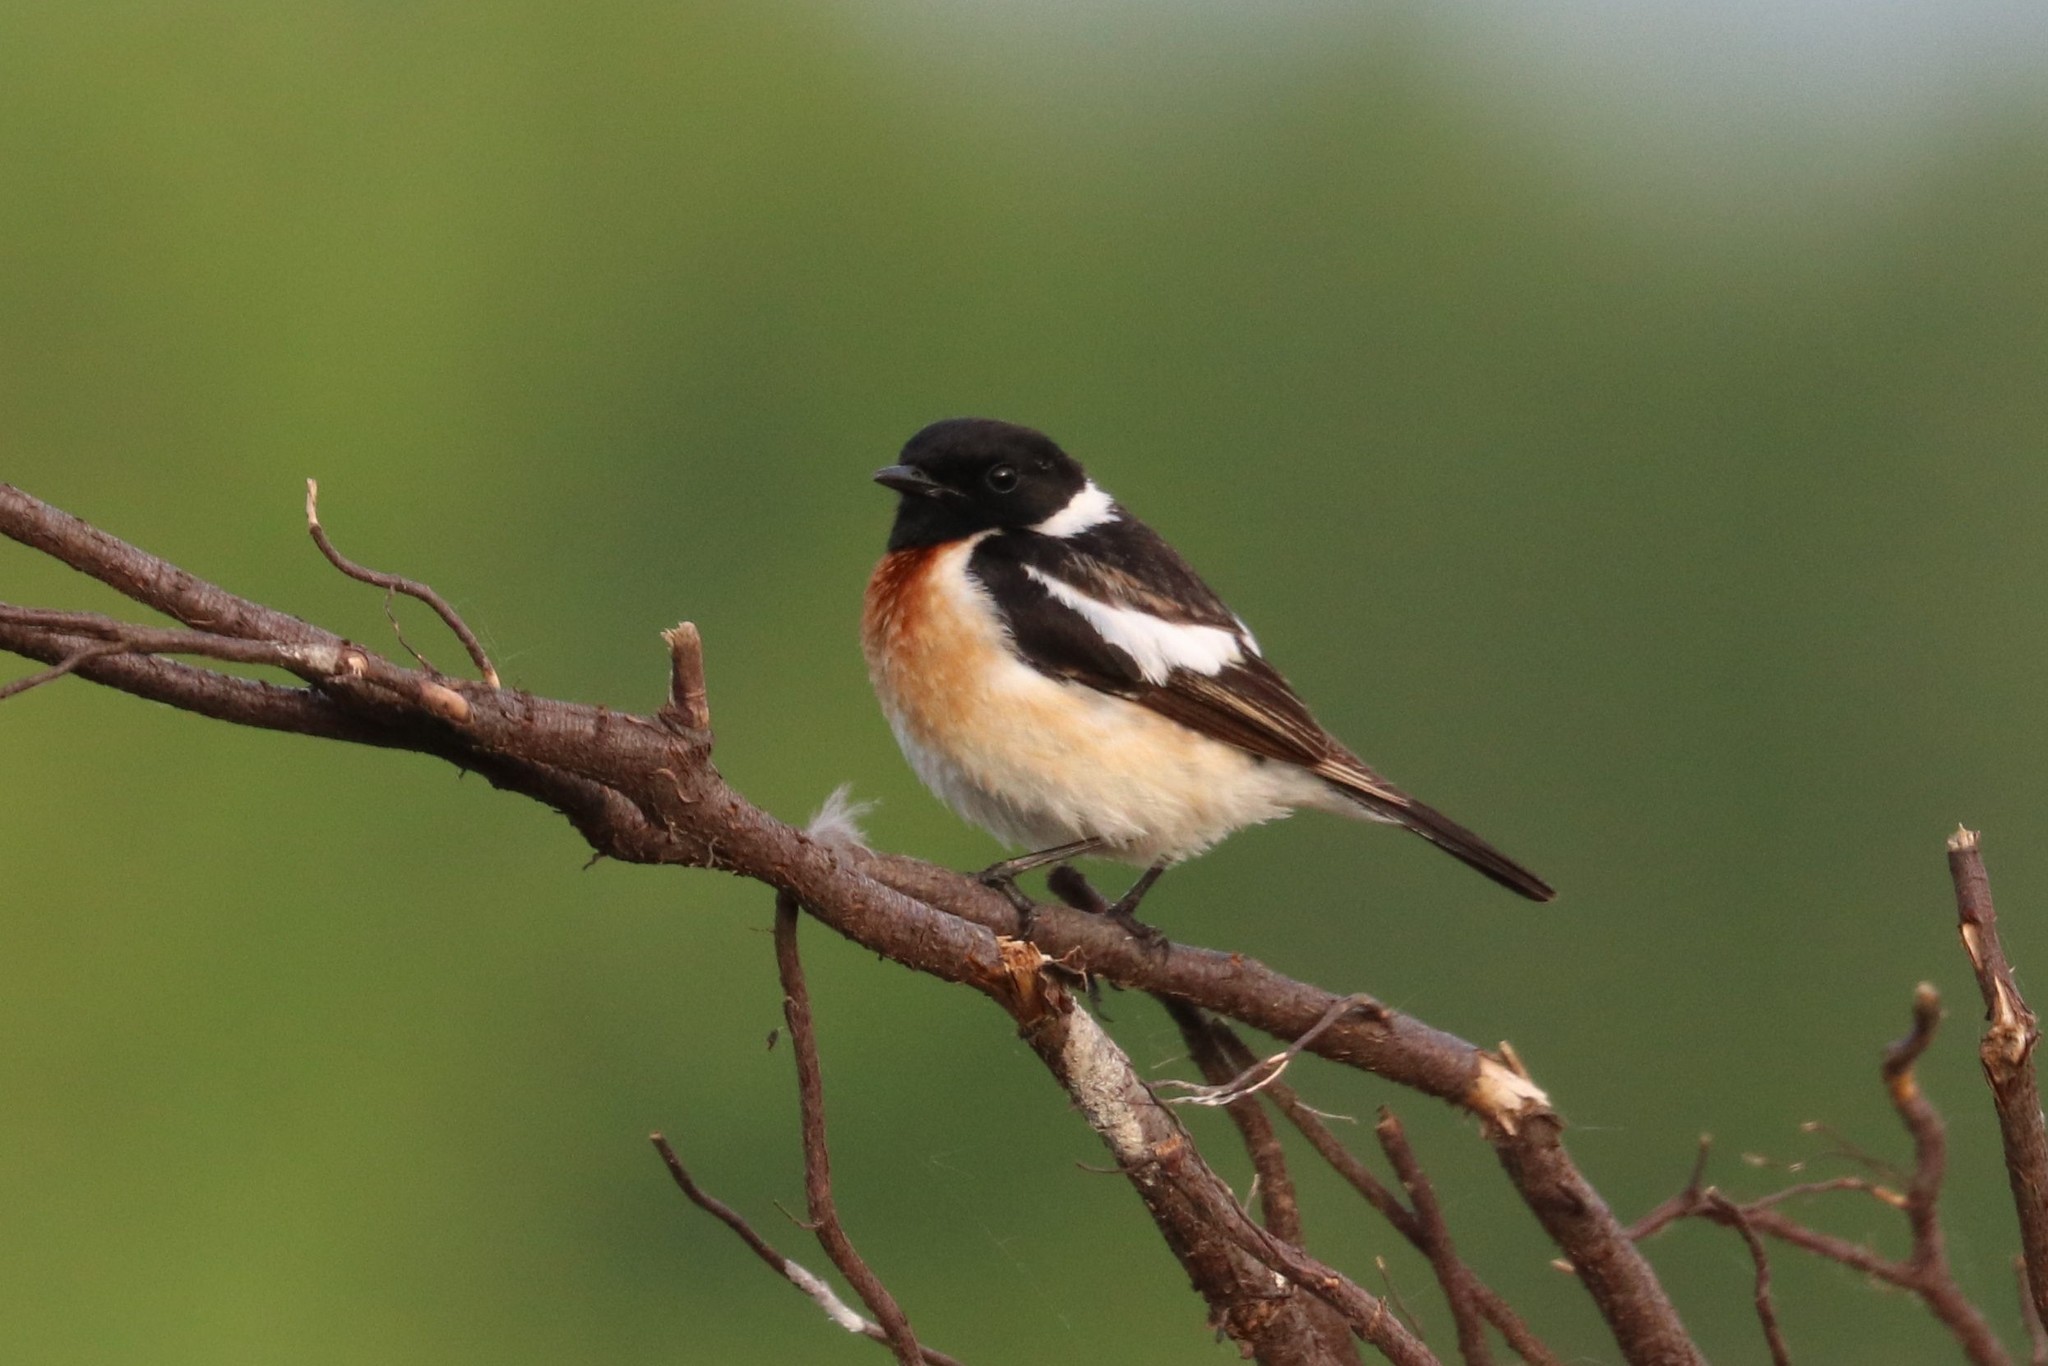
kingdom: Animalia
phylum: Chordata
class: Aves
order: Passeriformes
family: Muscicapidae
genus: Saxicola
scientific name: Saxicola maurus
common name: Siberian stonechat
